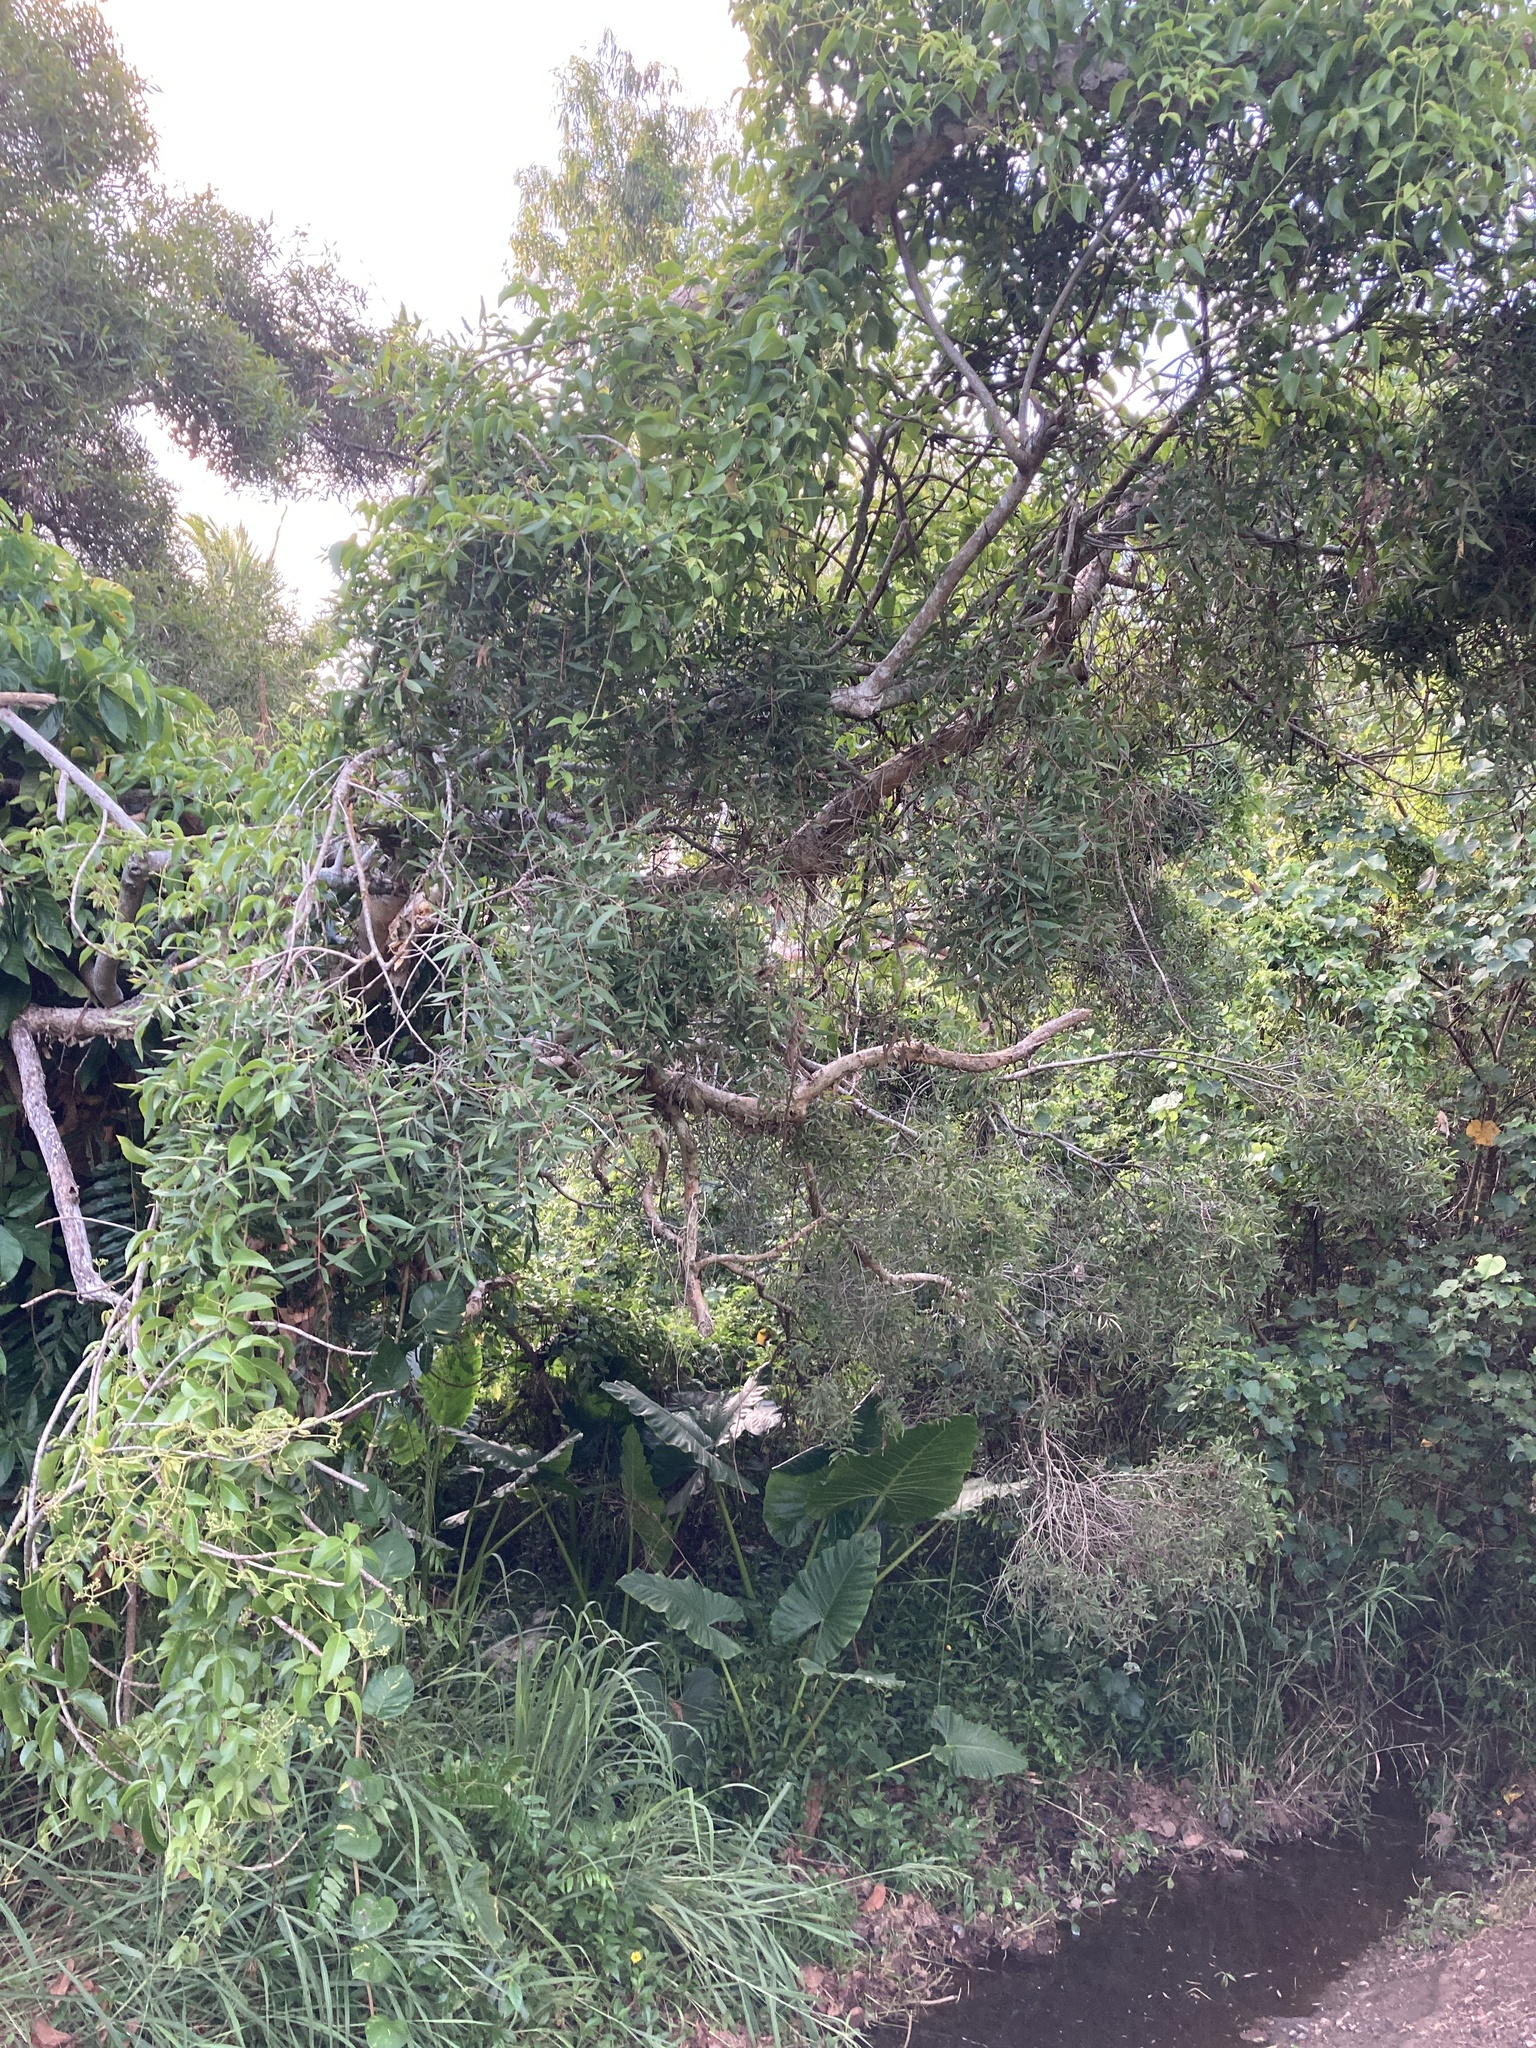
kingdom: Plantae
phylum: Tracheophyta
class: Magnoliopsida
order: Myrtales
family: Myrtaceae
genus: Melaleuca
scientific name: Melaleuca leucadendra
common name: Weeping paperbark
